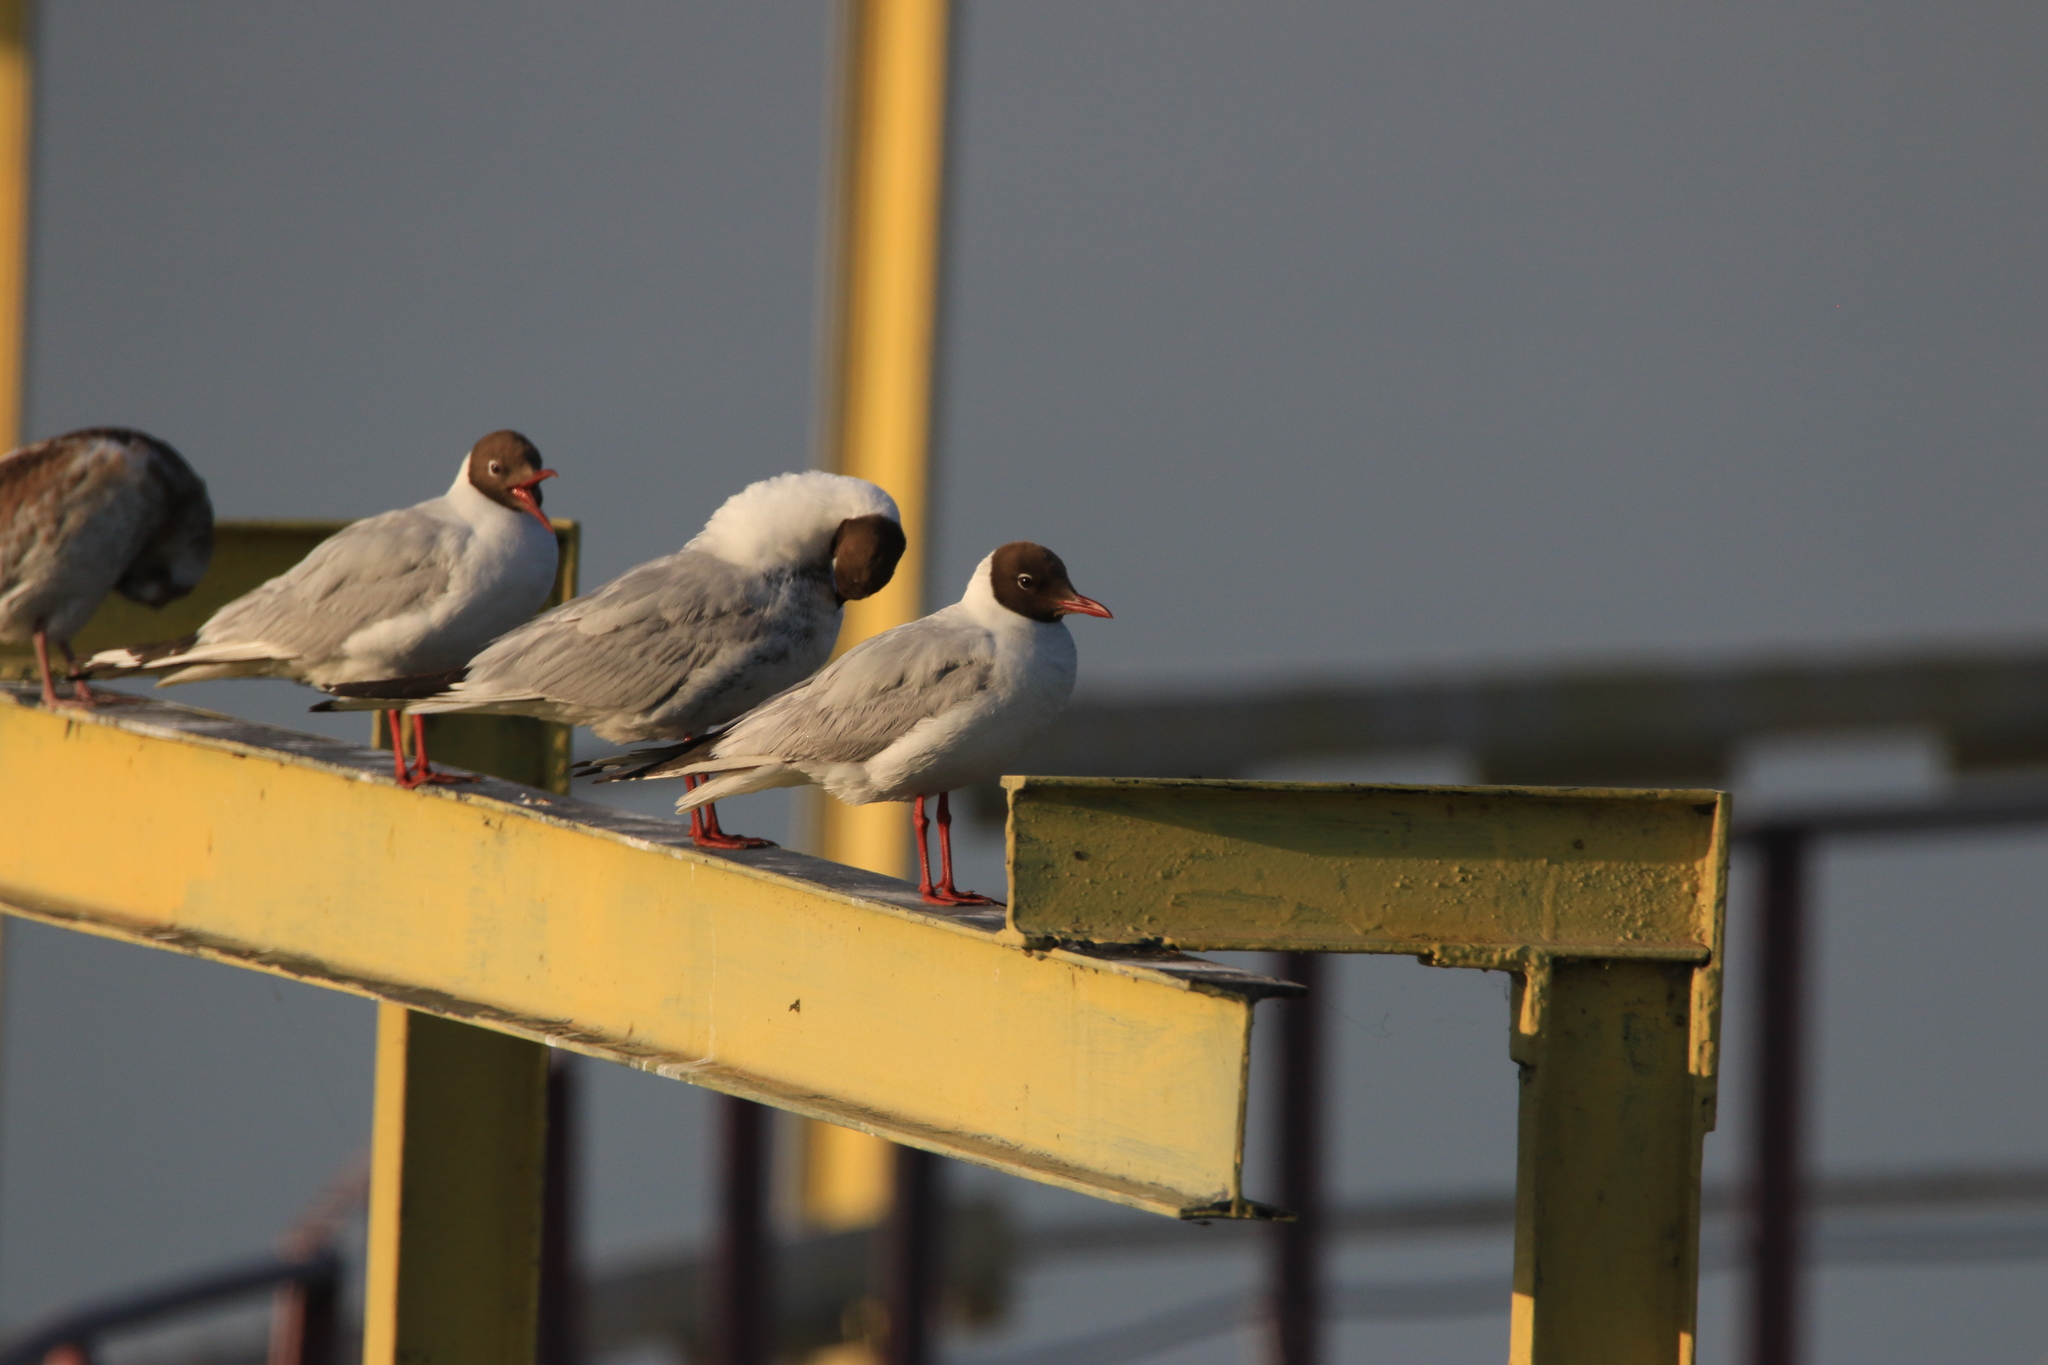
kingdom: Animalia
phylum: Chordata
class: Aves
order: Charadriiformes
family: Laridae
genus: Chroicocephalus
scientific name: Chroicocephalus ridibundus
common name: Black-headed gull
